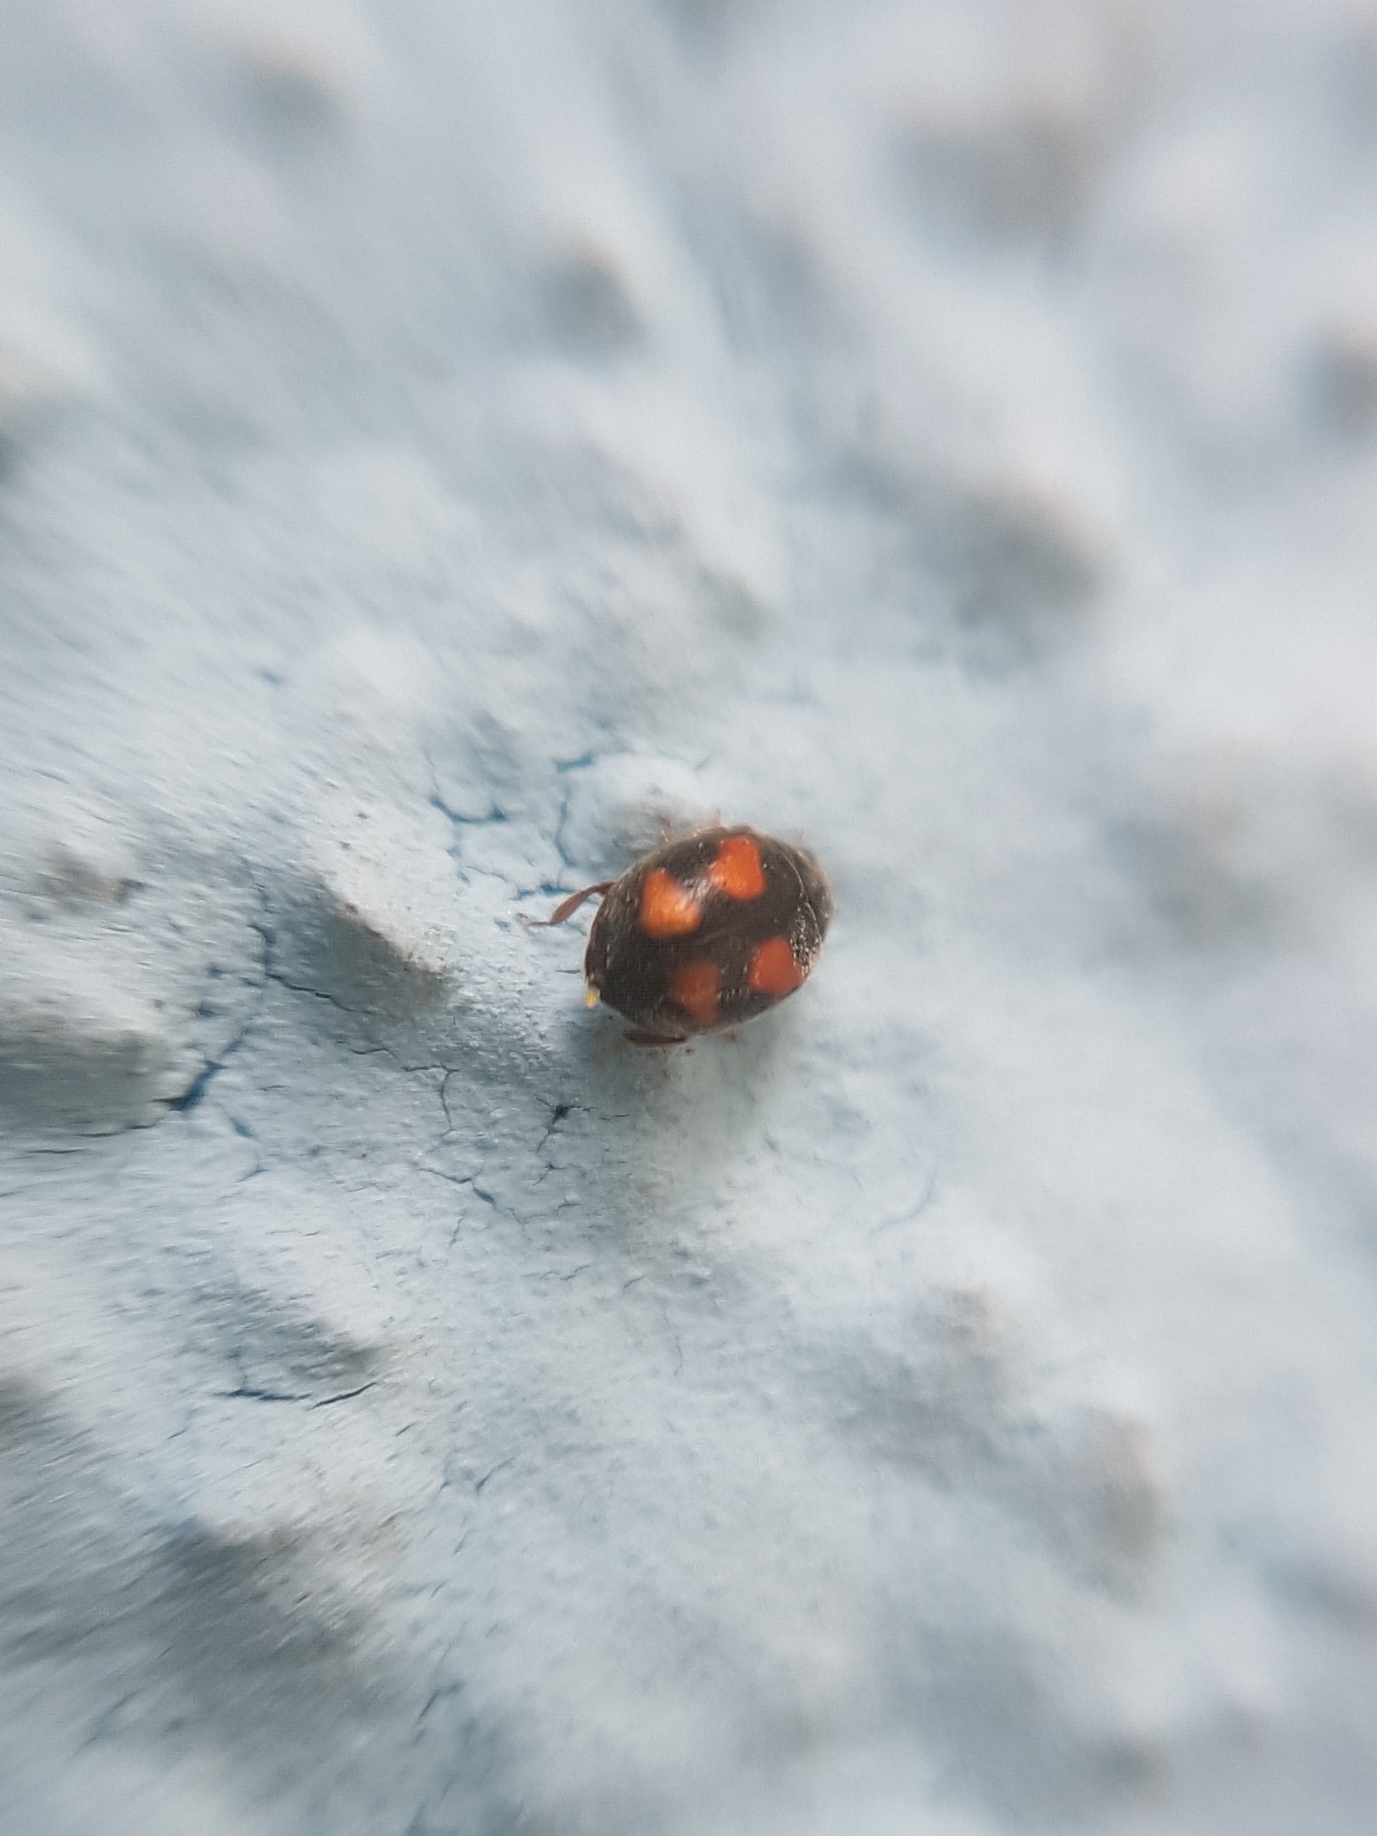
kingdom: Animalia
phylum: Arthropoda
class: Insecta
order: Coleoptera
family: Coccinellidae
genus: Nephus
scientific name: Nephus quadrimaculatus
